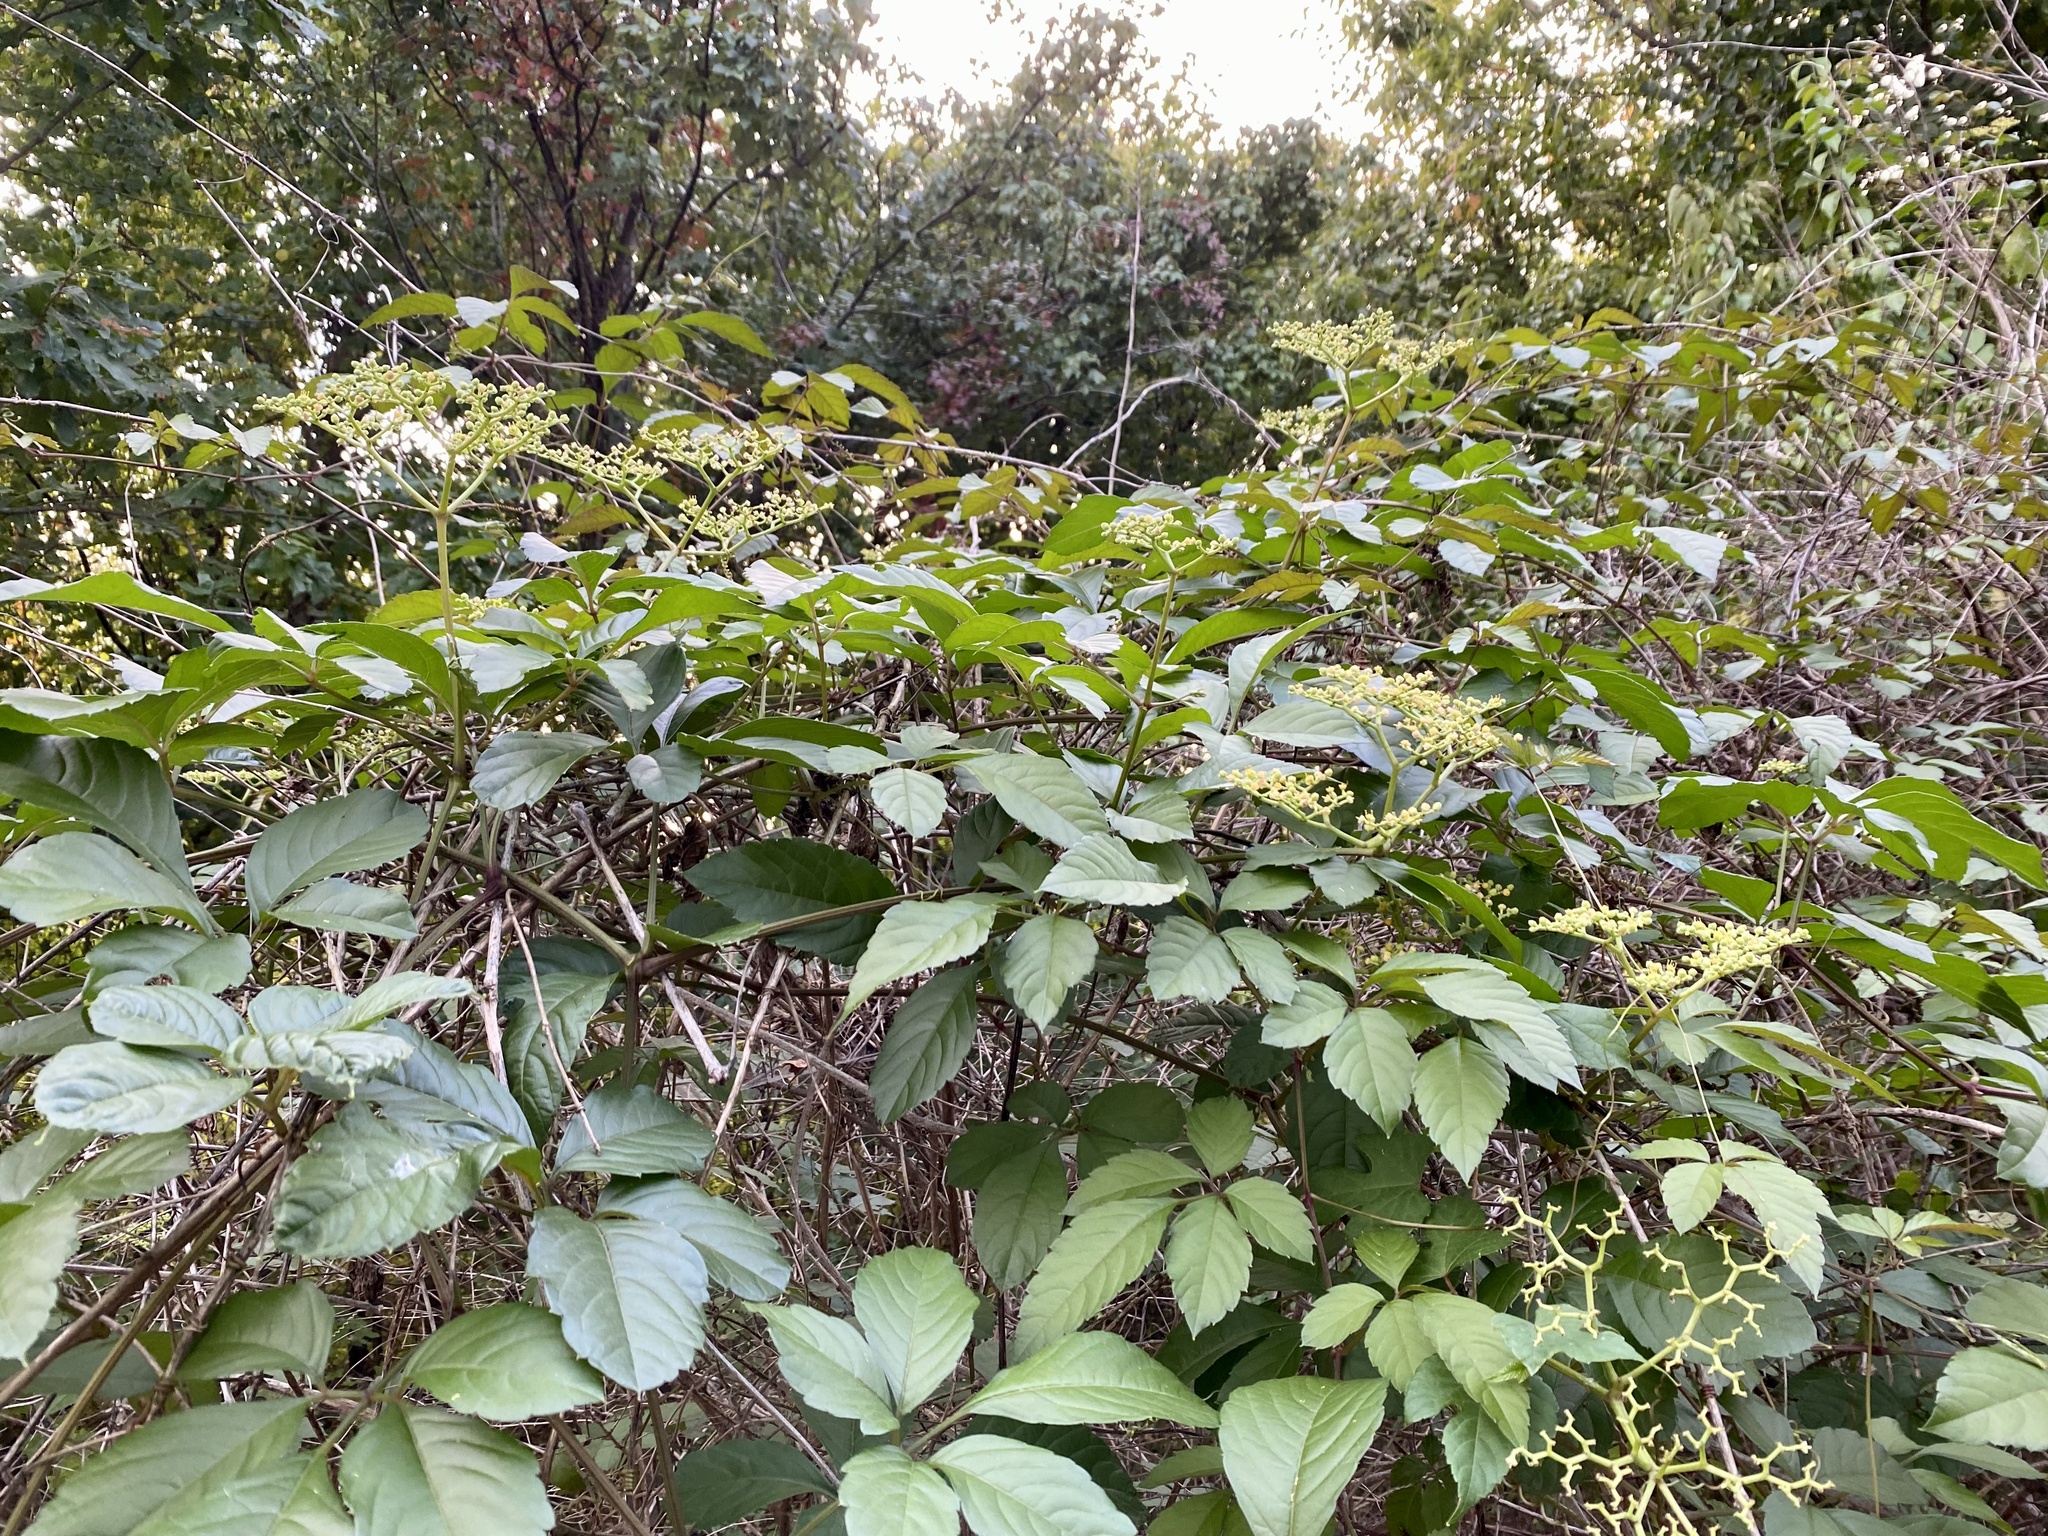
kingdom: Plantae
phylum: Tracheophyta
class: Magnoliopsida
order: Vitales
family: Vitaceae
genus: Causonis
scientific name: Causonis japonica
